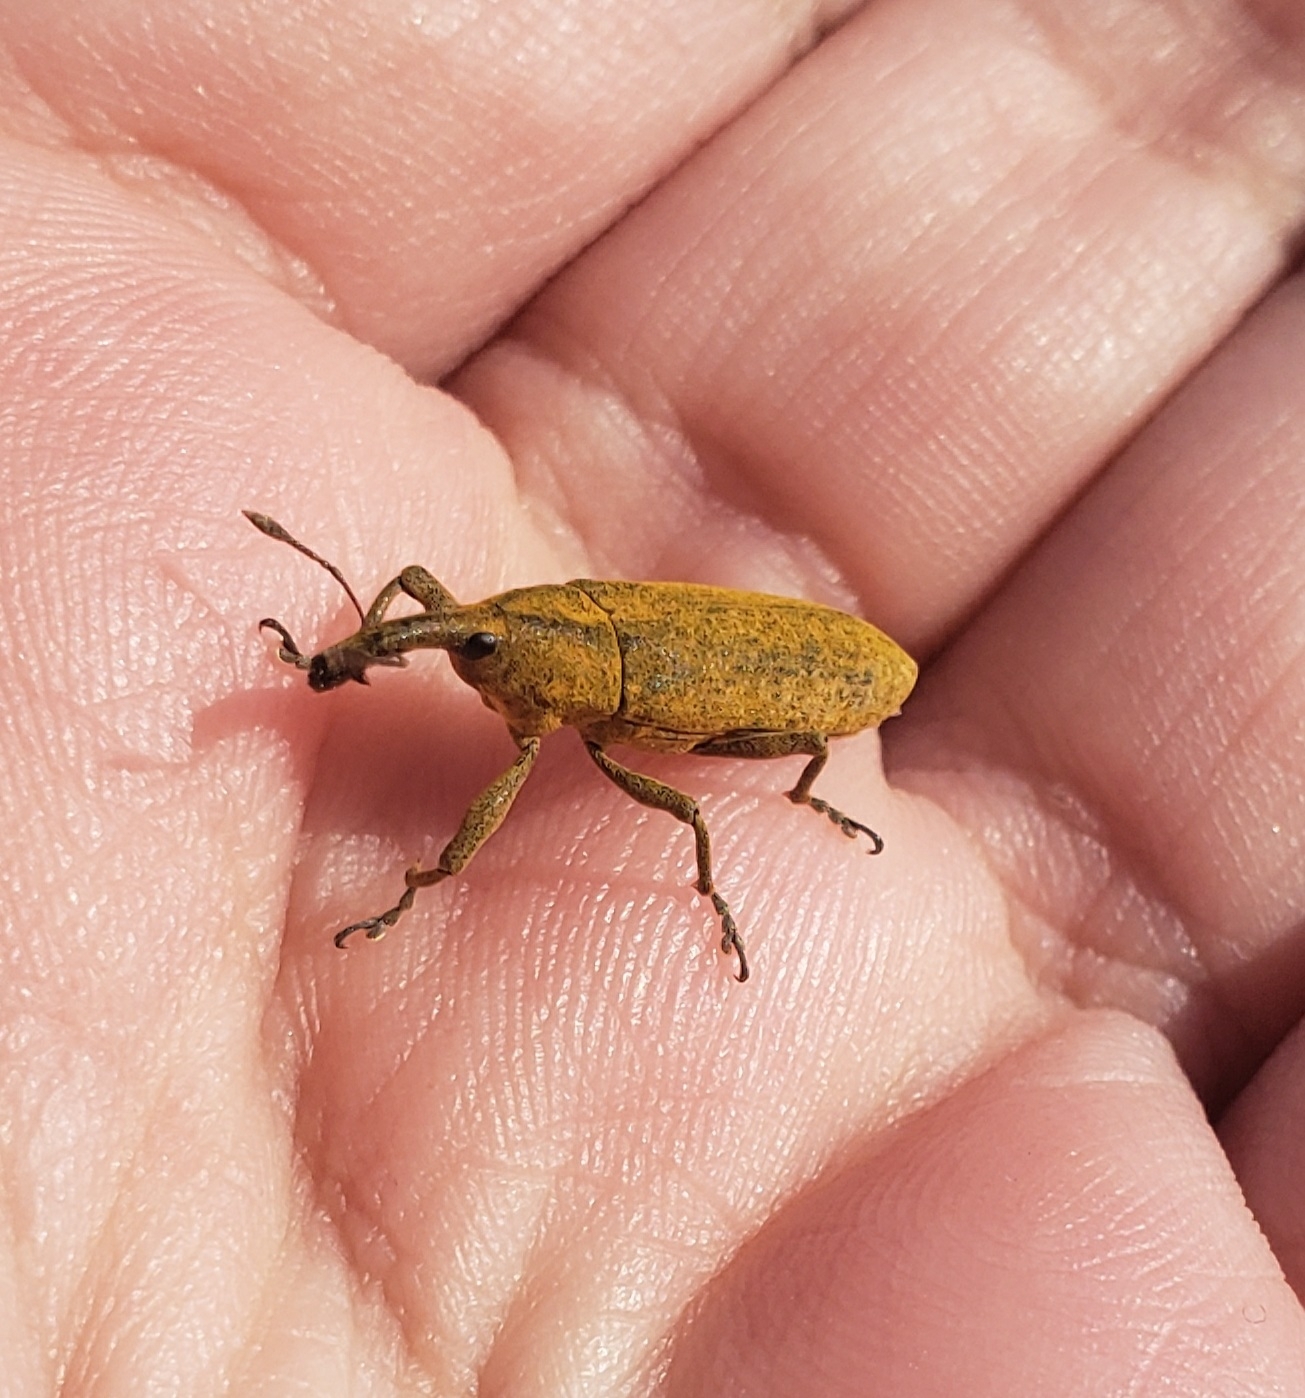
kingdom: Animalia
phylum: Arthropoda
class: Insecta
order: Coleoptera
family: Curculionidae
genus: Lixus
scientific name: Lixus concavus
